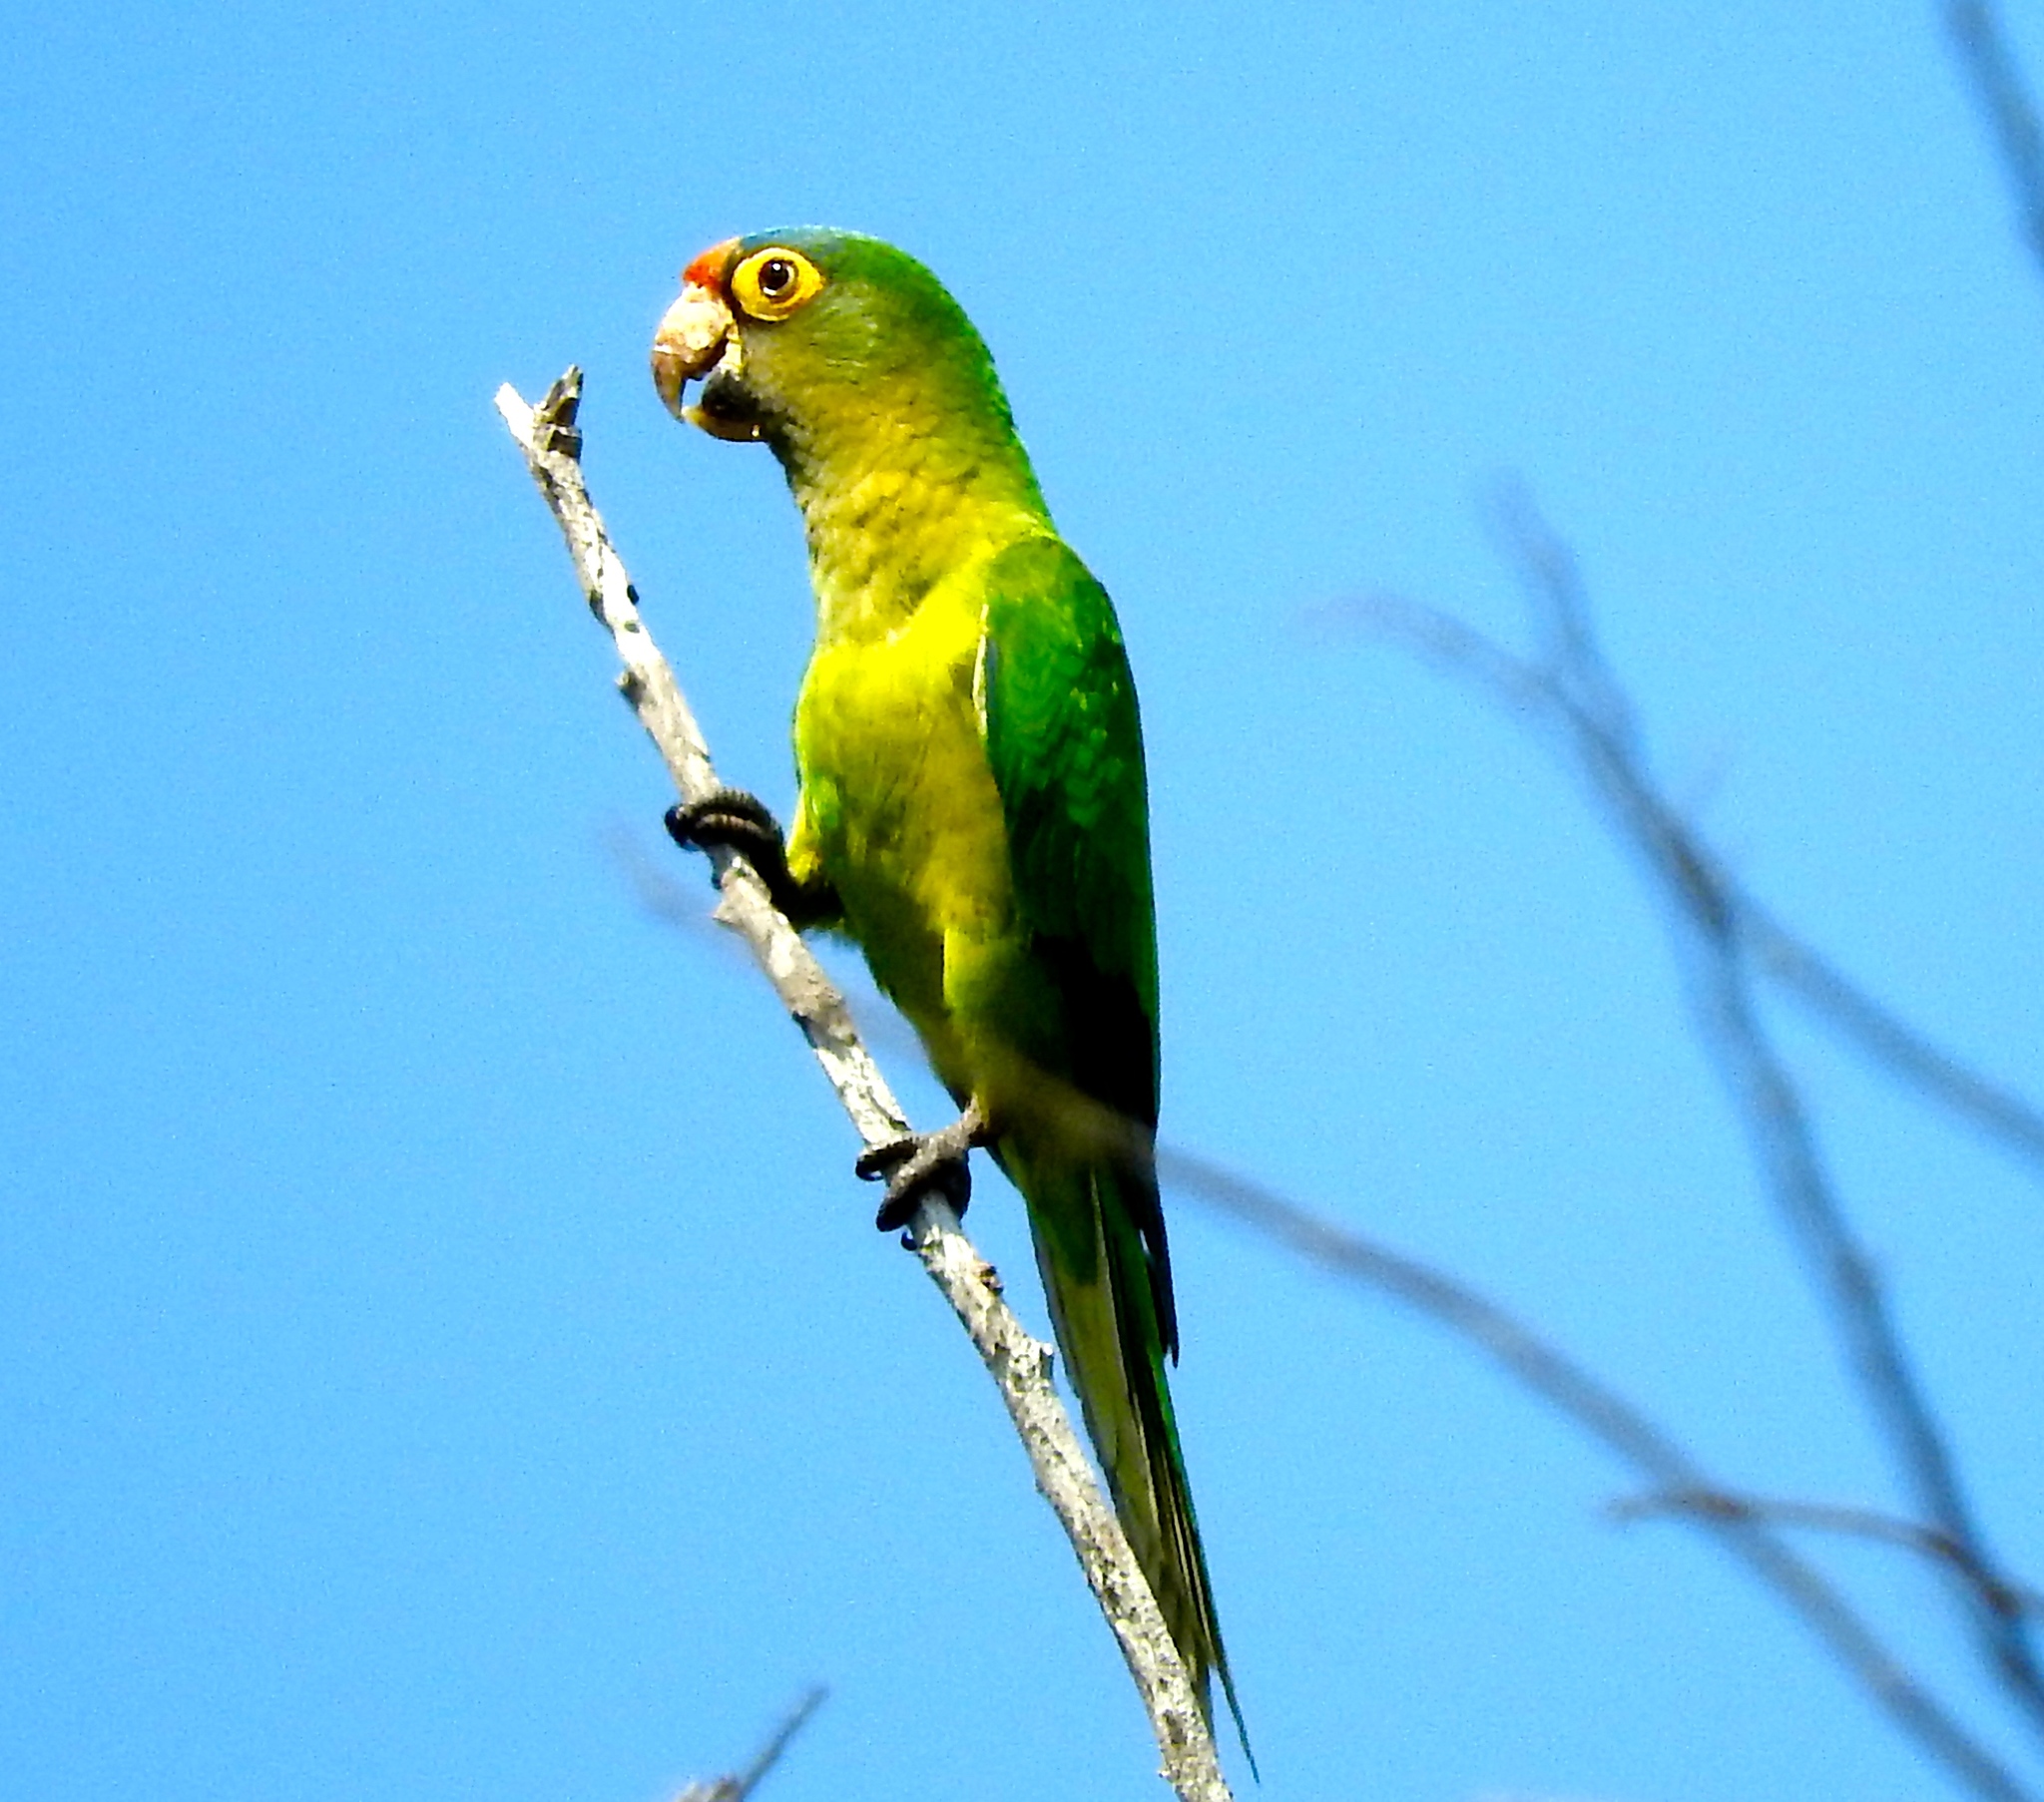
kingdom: Animalia
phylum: Chordata
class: Aves
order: Psittaciformes
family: Psittacidae
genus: Aratinga
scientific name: Aratinga canicularis
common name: Orange-fronted parakeet
